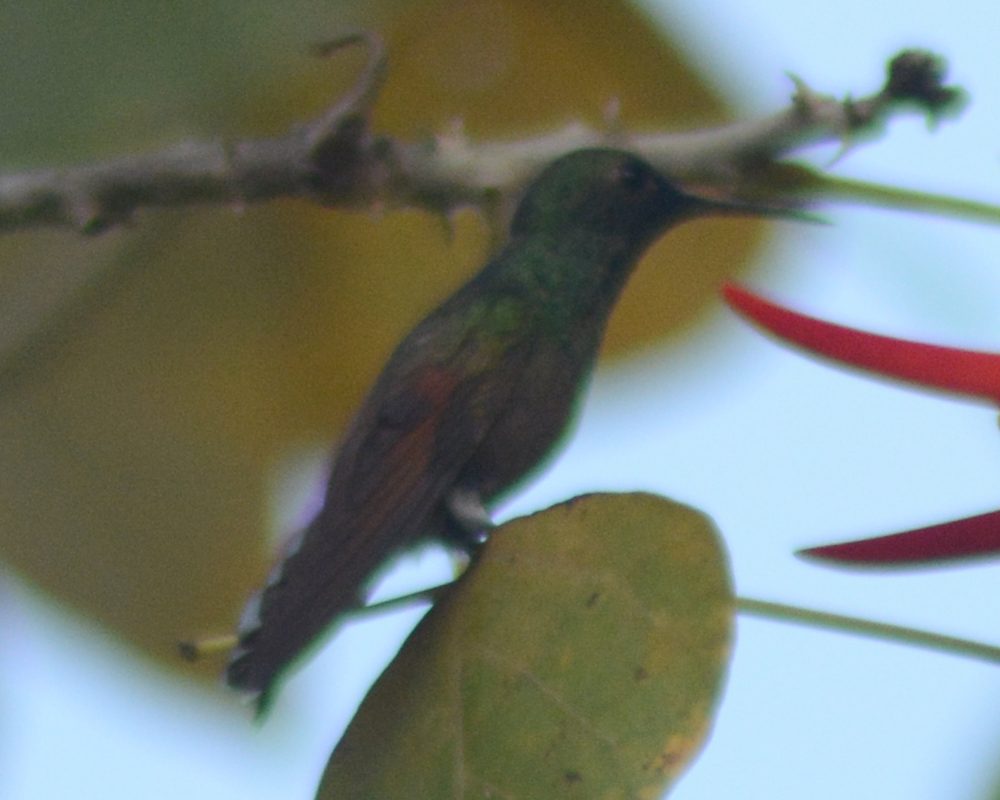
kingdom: Animalia
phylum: Chordata
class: Aves
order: Apodiformes
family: Trochilidae
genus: Saucerottia
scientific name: Saucerottia beryllina
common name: Berylline hummingbird
